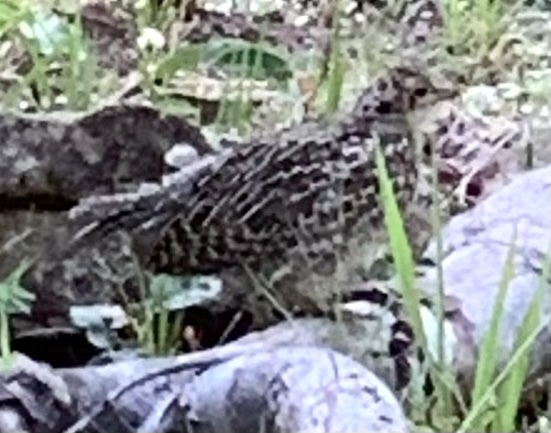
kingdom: Animalia
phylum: Chordata
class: Aves
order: Galliformes
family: Phasianidae
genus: Dendragapus
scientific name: Dendragapus obscurus
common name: Dusky grouse
